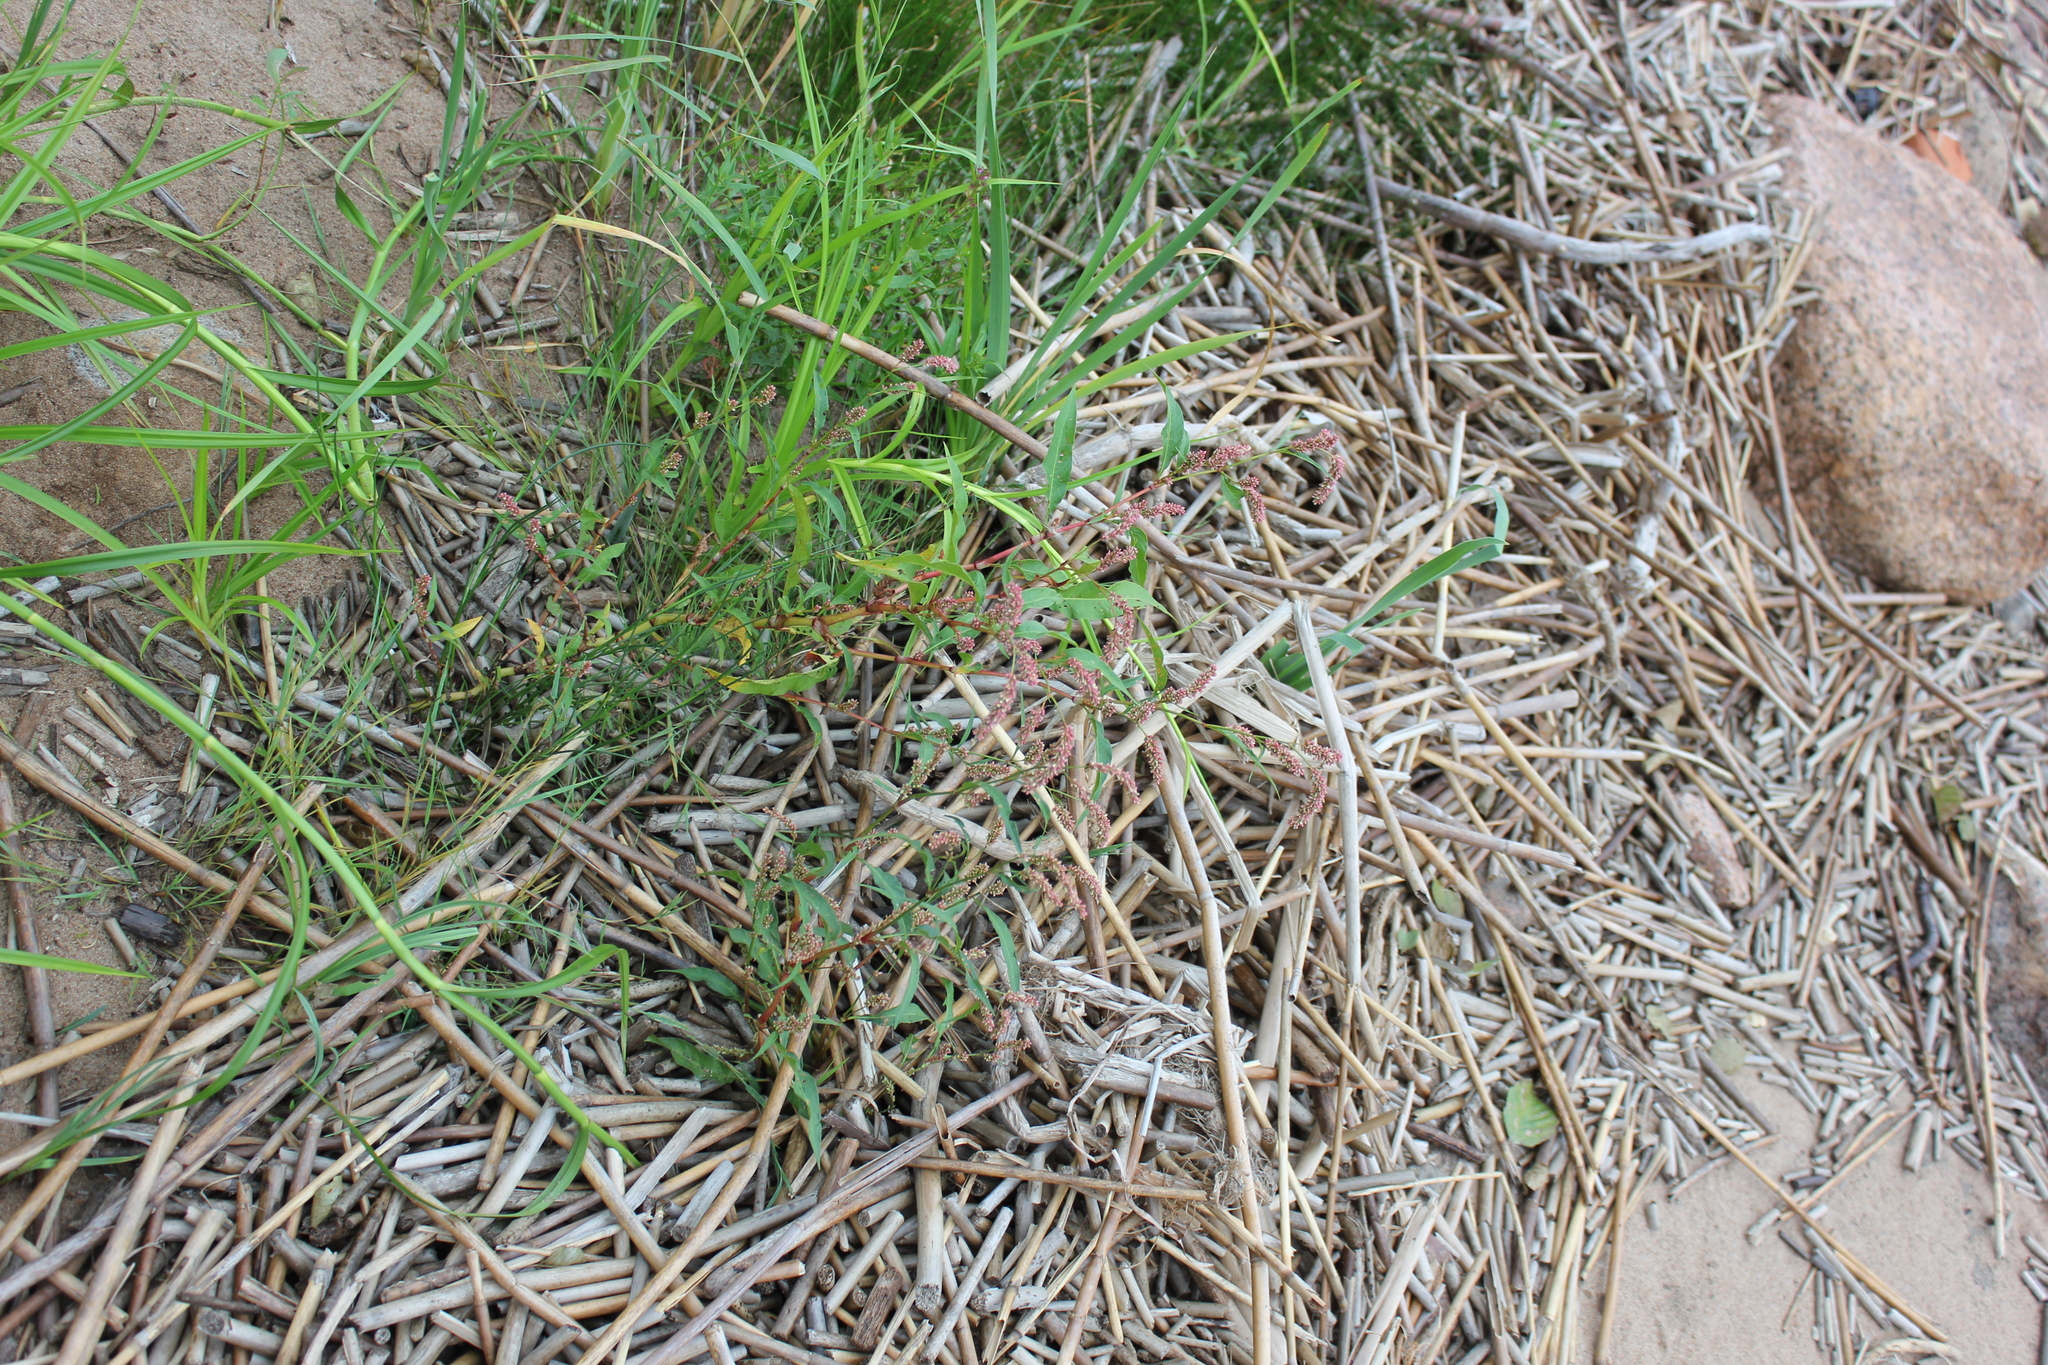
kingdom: Plantae
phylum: Tracheophyta
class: Magnoliopsida
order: Caryophyllales
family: Polygonaceae
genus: Persicaria
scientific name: Persicaria lapathifolia
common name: Curlytop knotweed
